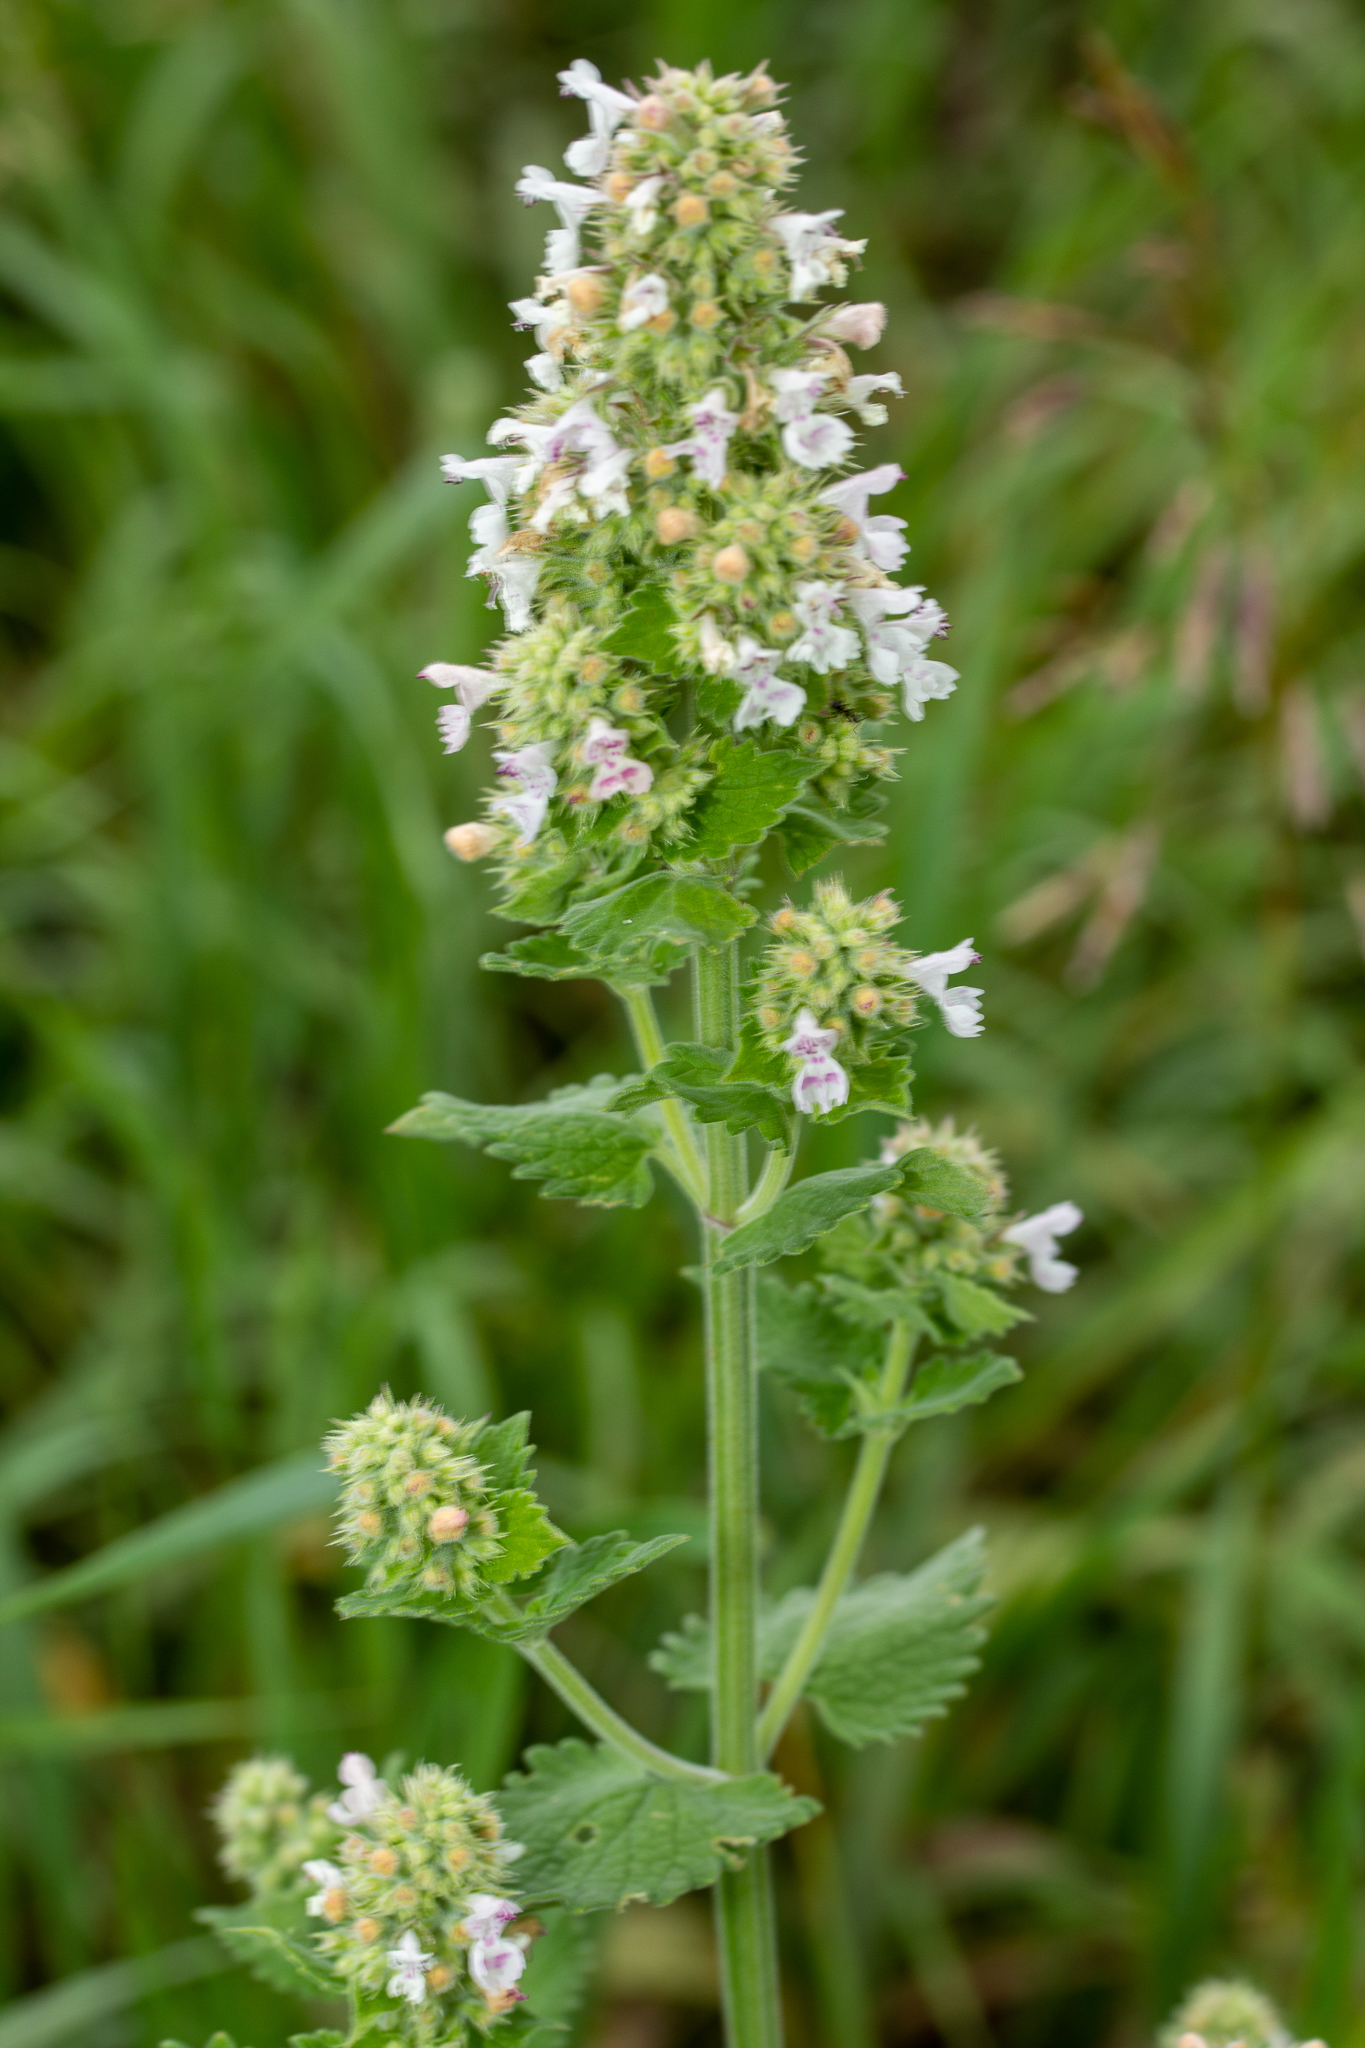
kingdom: Plantae
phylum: Tracheophyta
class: Magnoliopsida
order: Lamiales
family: Lamiaceae
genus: Nepeta
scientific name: Nepeta cataria
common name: Catnip
